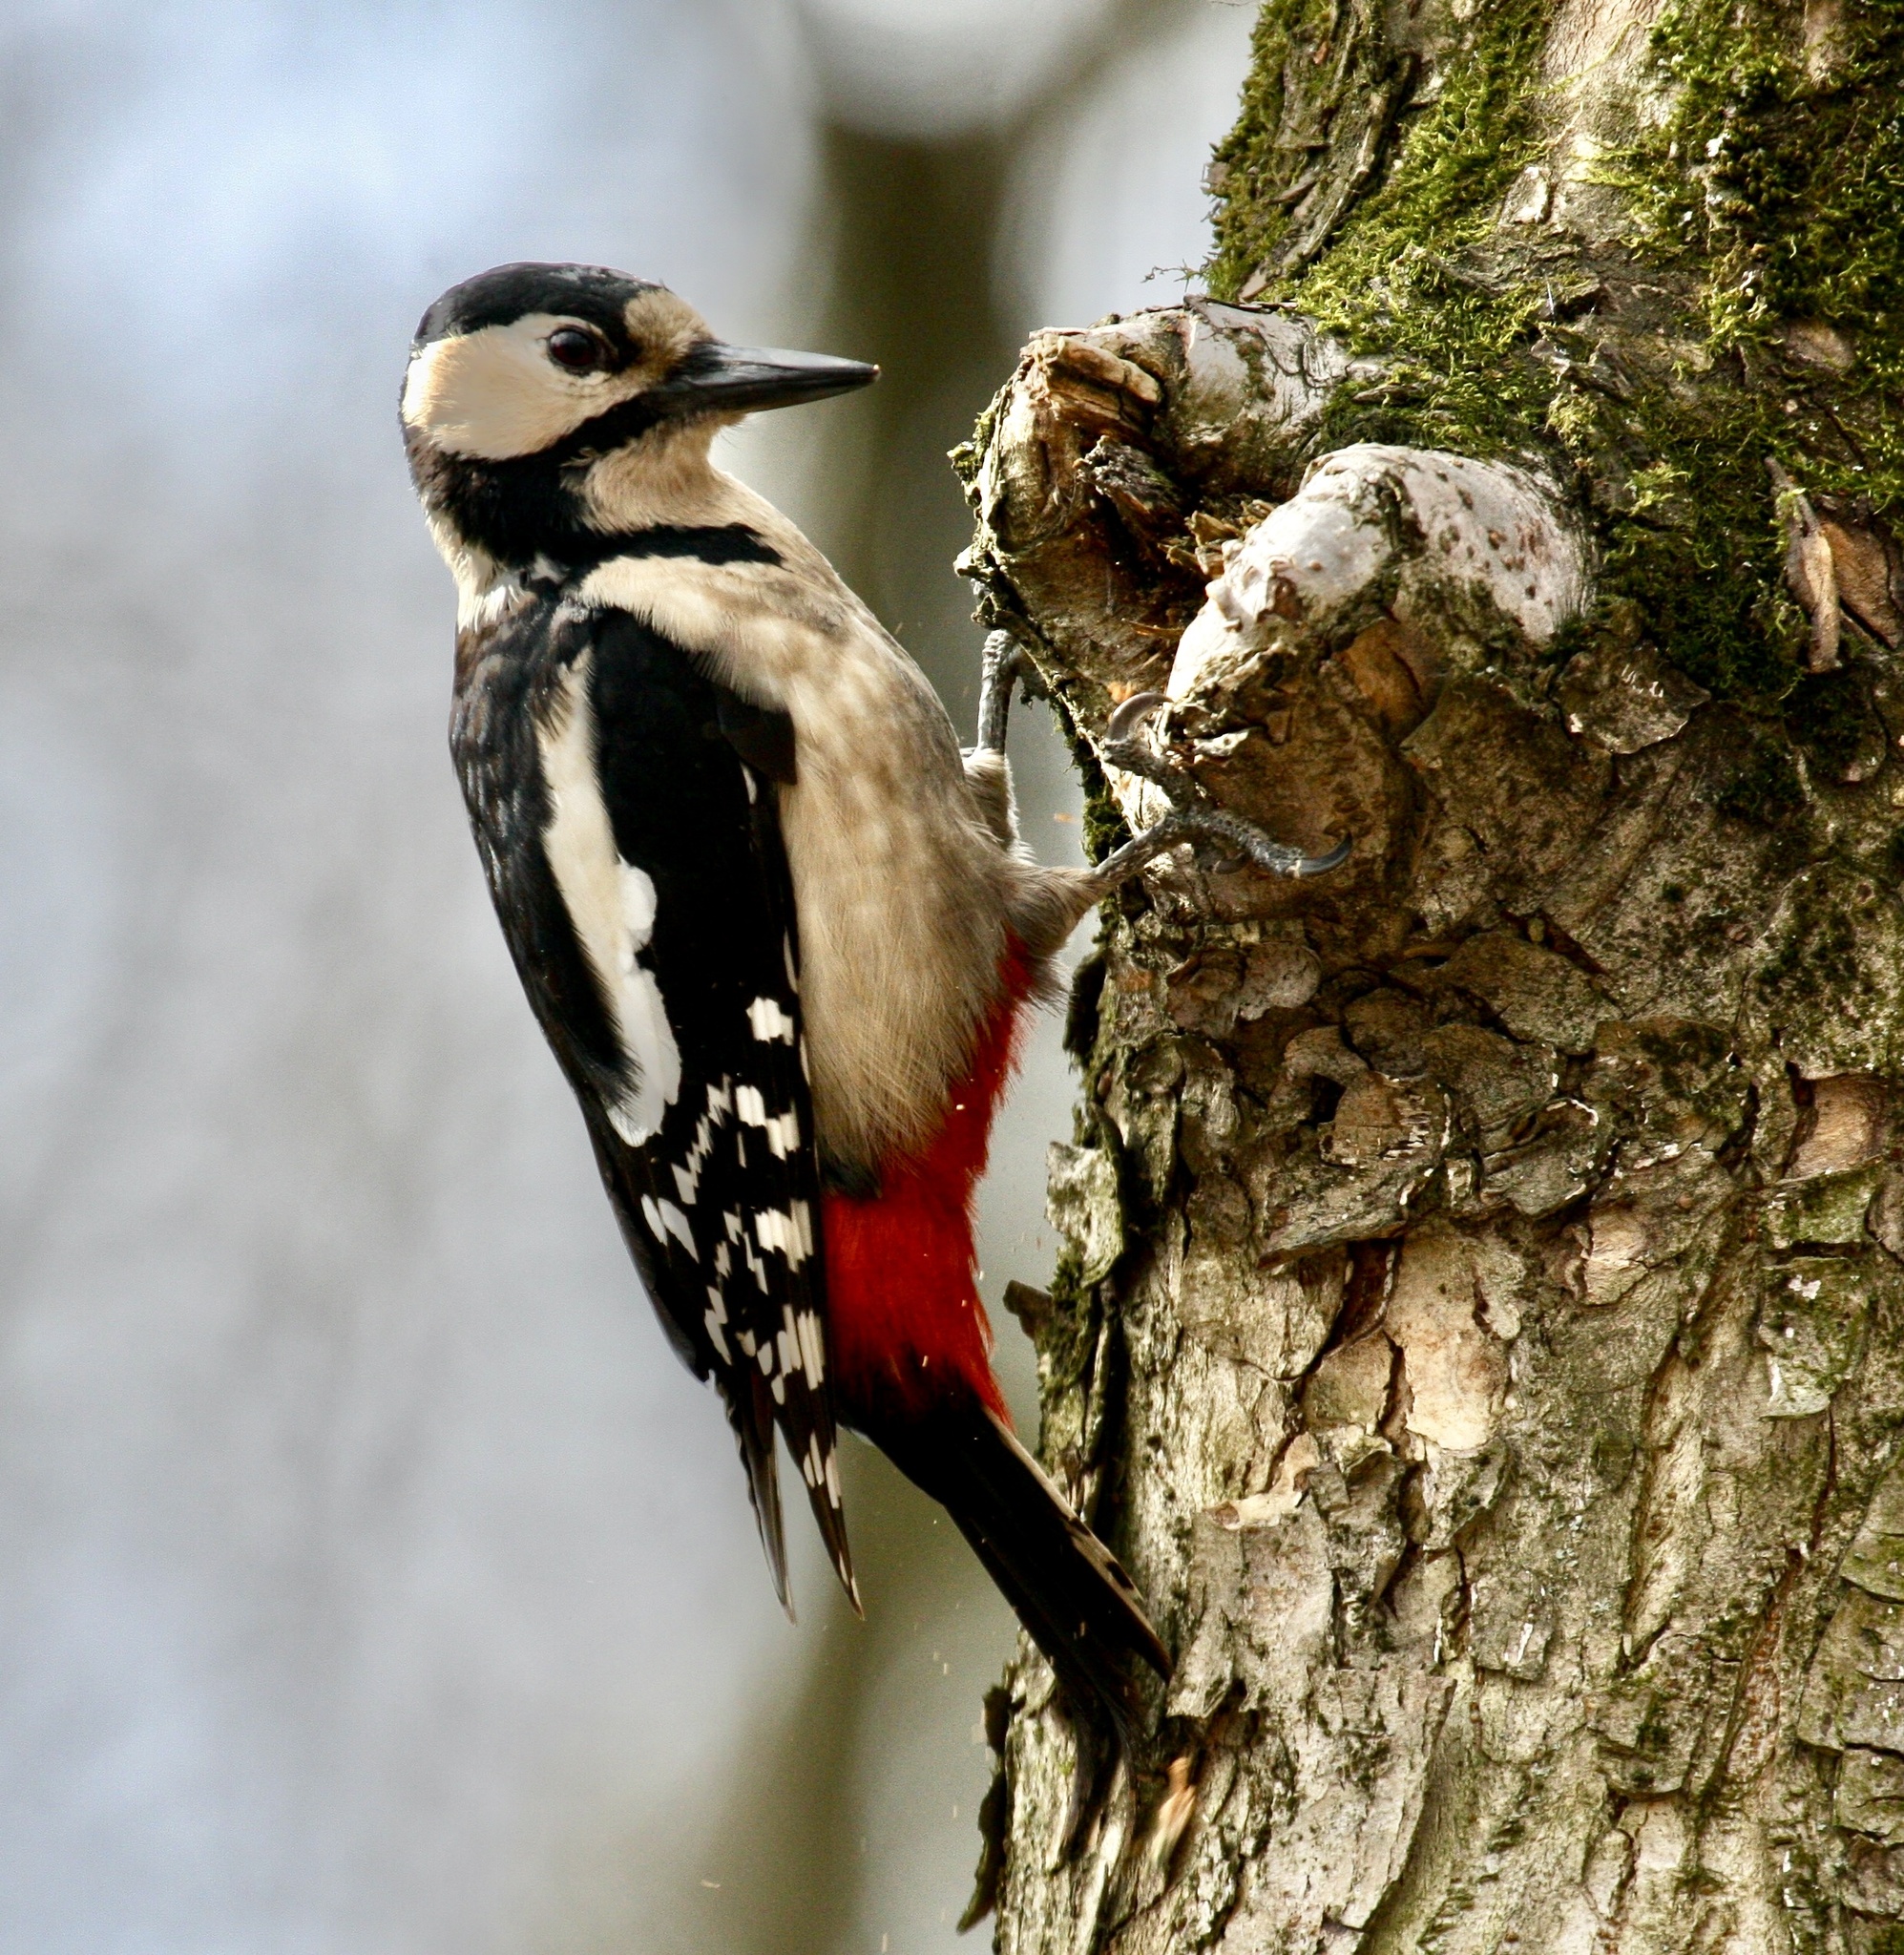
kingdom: Animalia
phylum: Chordata
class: Aves
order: Piciformes
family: Picidae
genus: Dendrocopos
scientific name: Dendrocopos major
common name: Great spotted woodpecker
